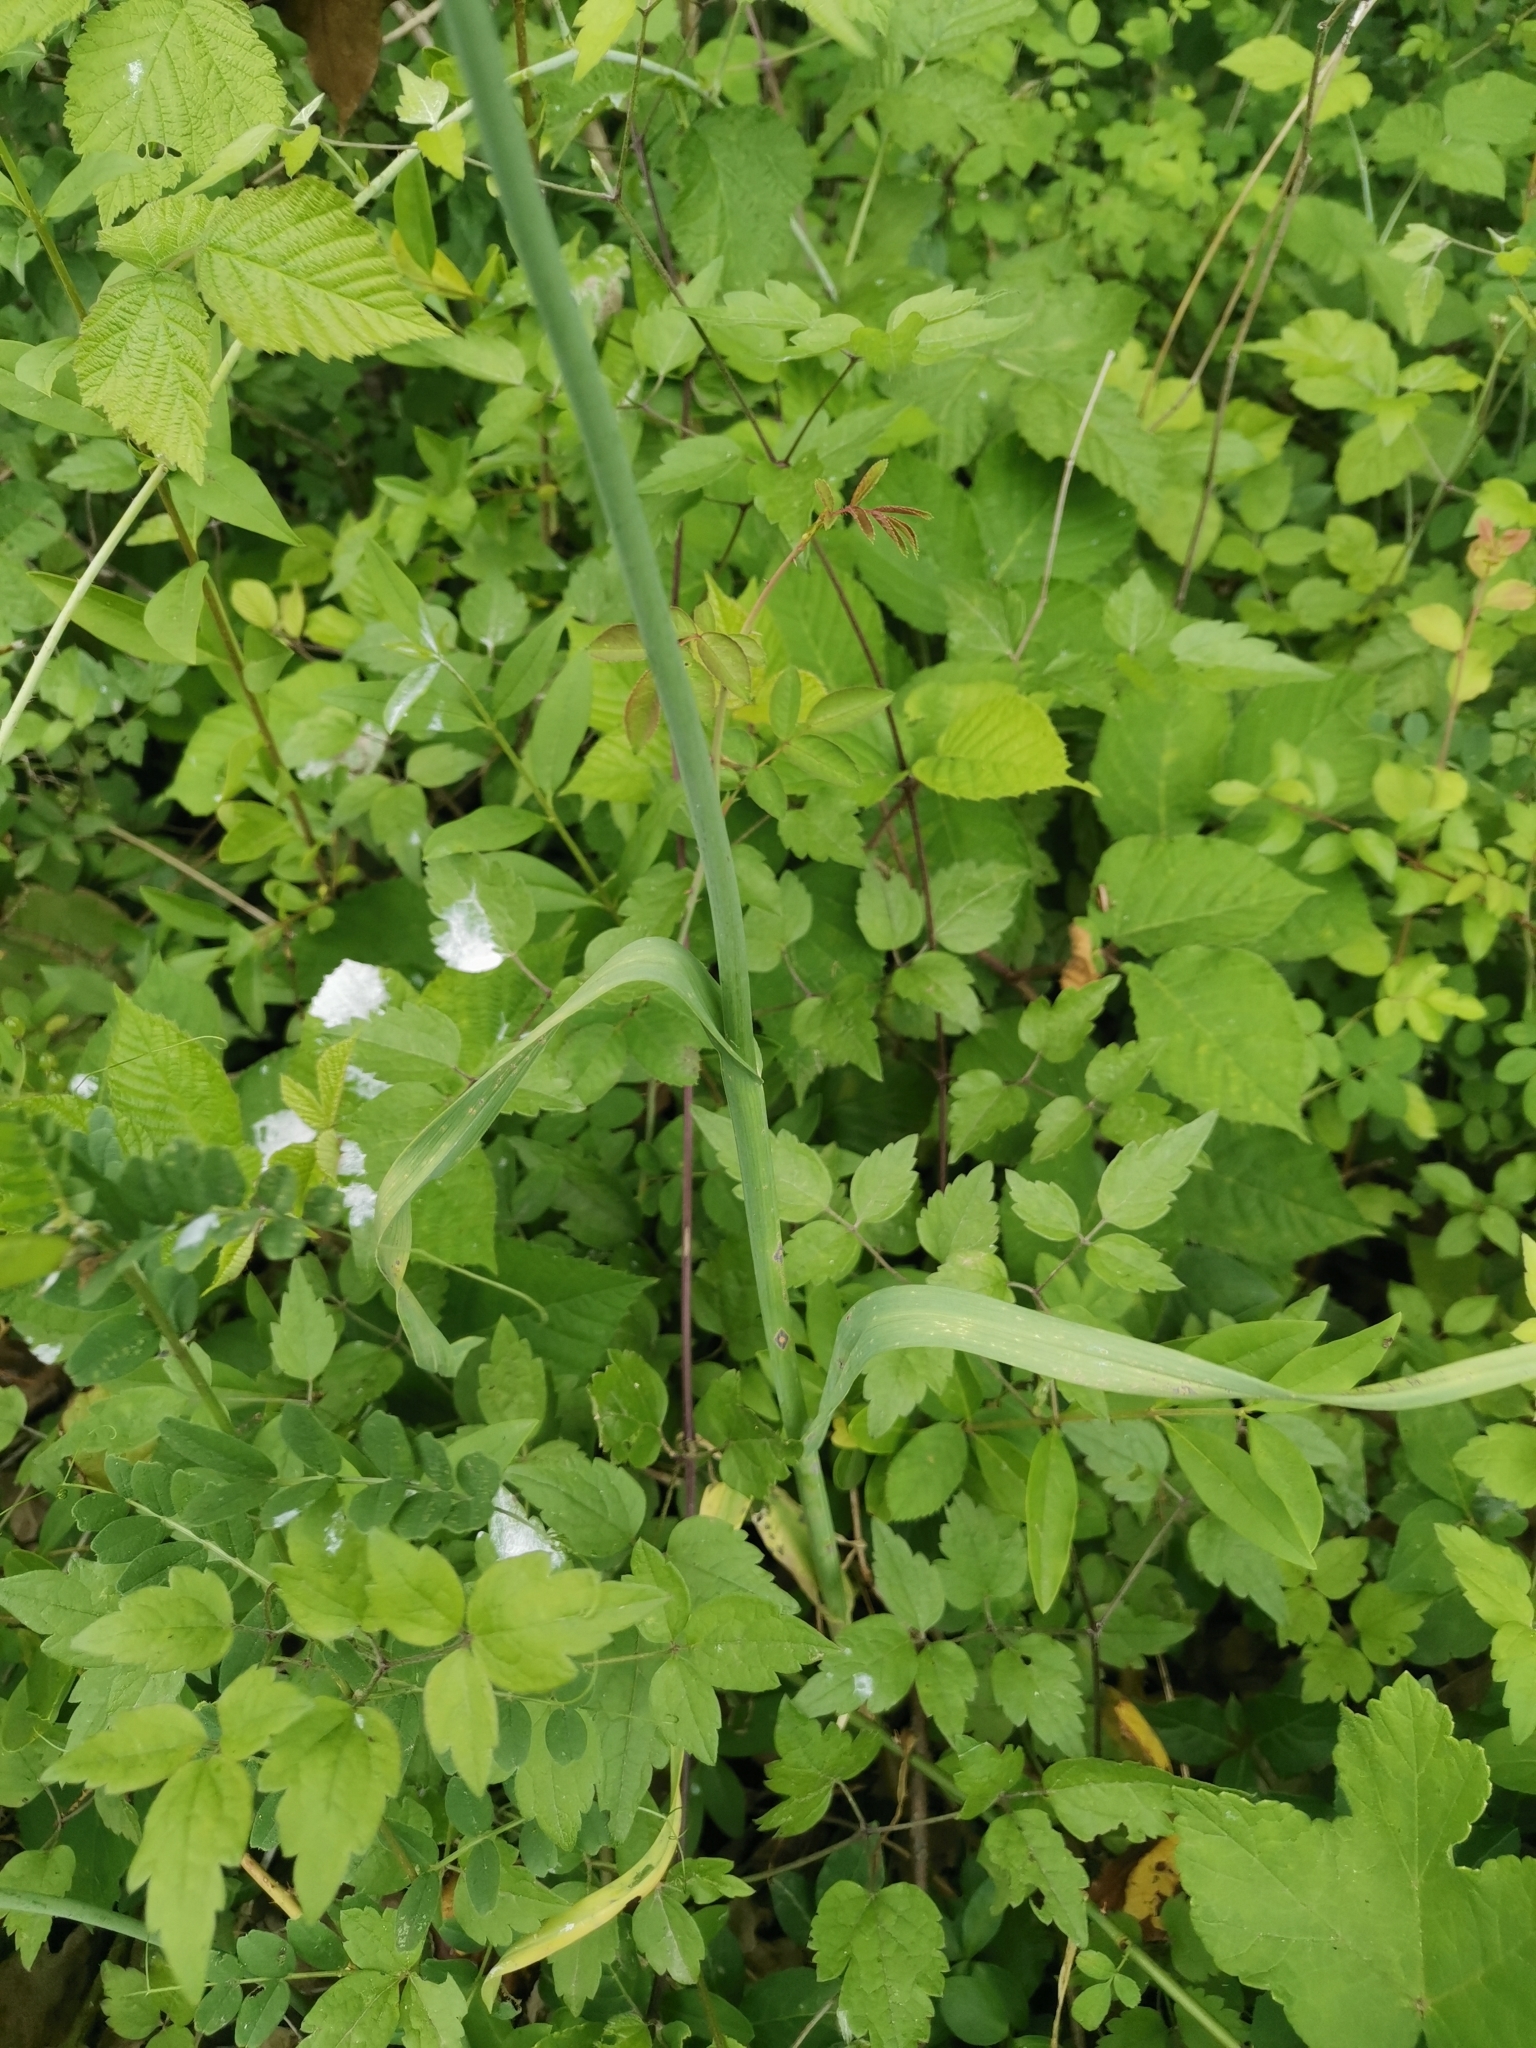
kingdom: Plantae
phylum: Tracheophyta
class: Liliopsida
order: Asparagales
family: Amaryllidaceae
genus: Allium
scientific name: Allium scorodoprasum
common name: Sand leek
